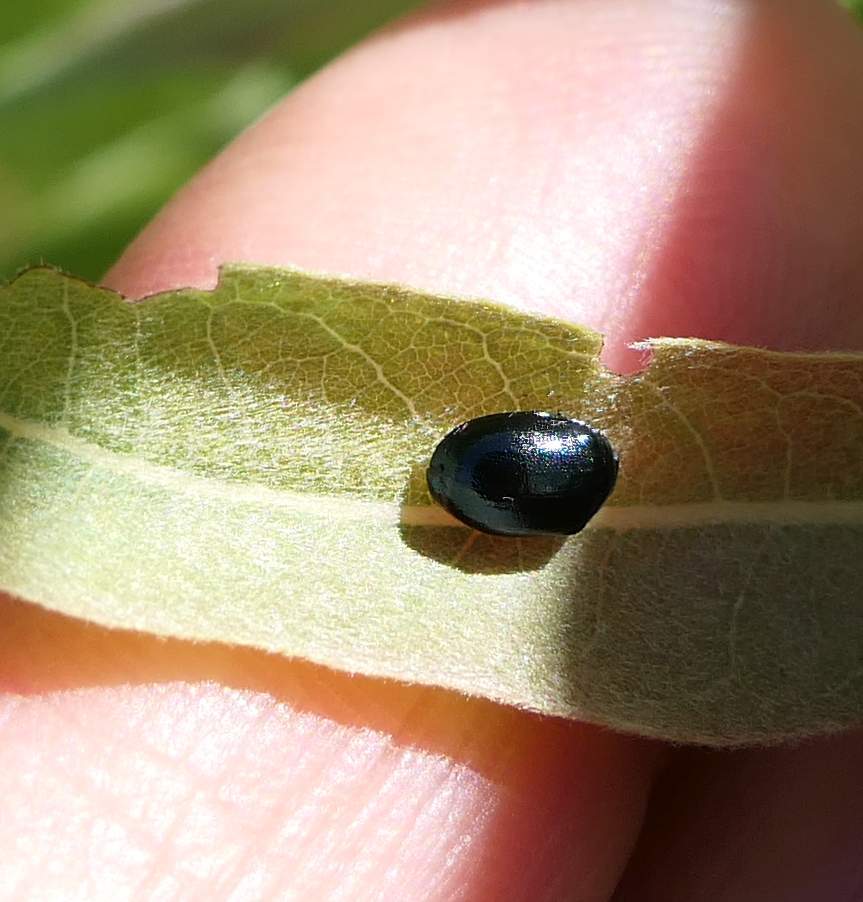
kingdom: Animalia
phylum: Arthropoda
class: Insecta
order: Coleoptera
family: Chrysomelidae
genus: Plagiodera
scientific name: Plagiodera versicolora
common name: Imported willow leaf beetle
